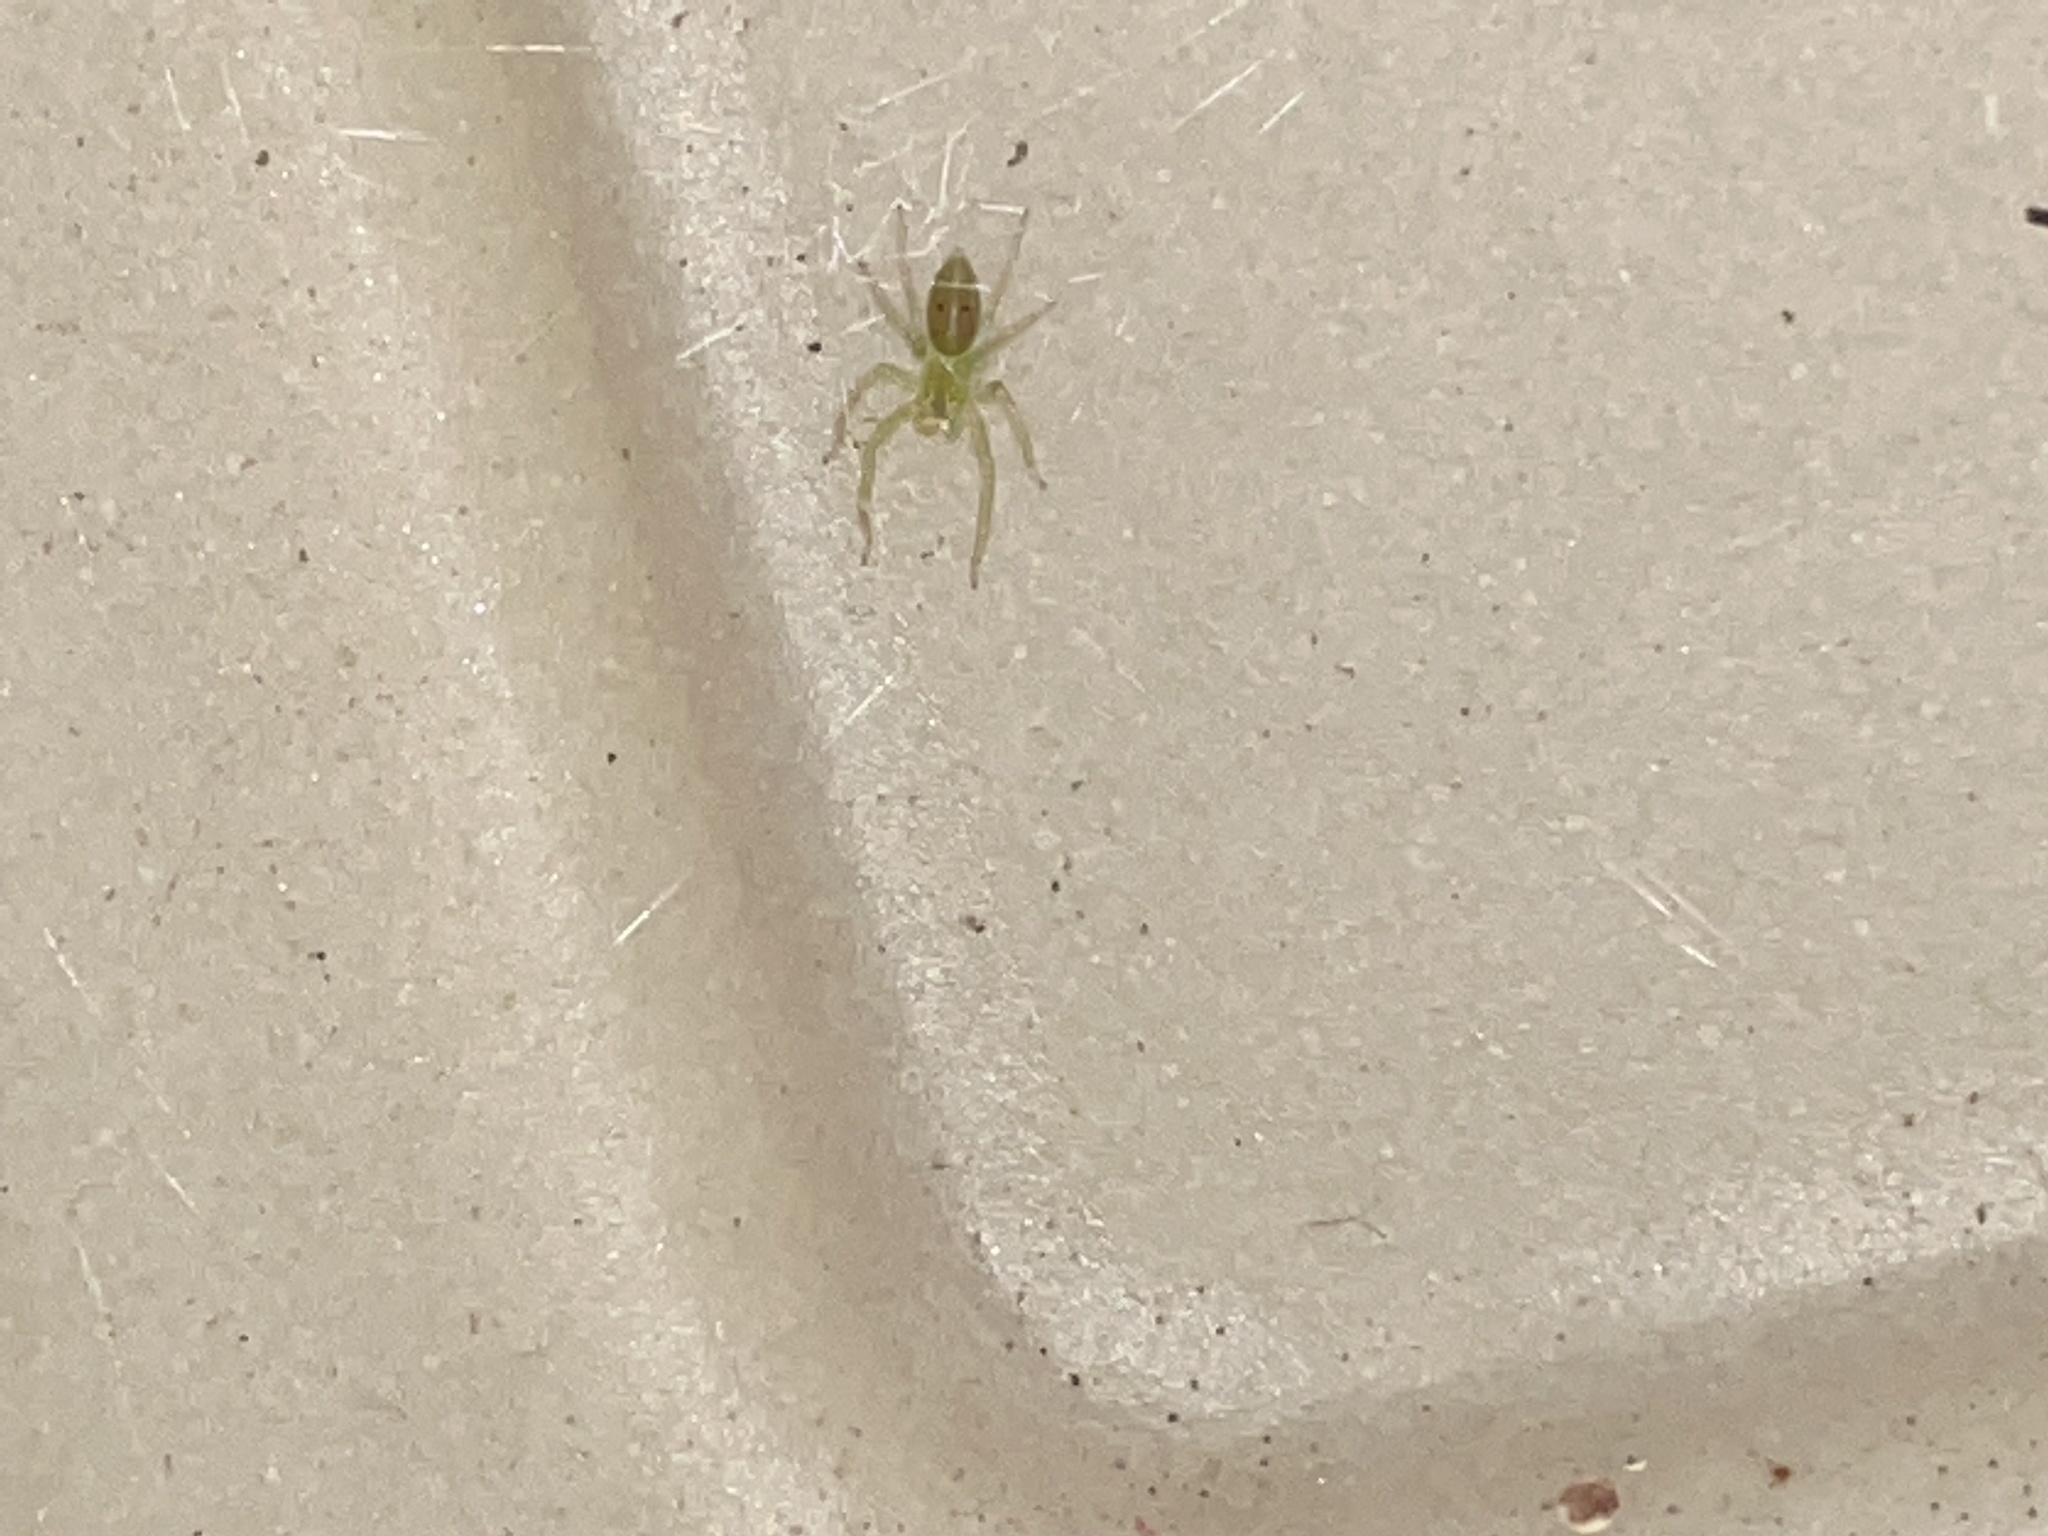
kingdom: Animalia
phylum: Arthropoda
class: Arachnida
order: Araneae
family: Salticidae
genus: Lyssomanes
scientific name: Lyssomanes viridis
